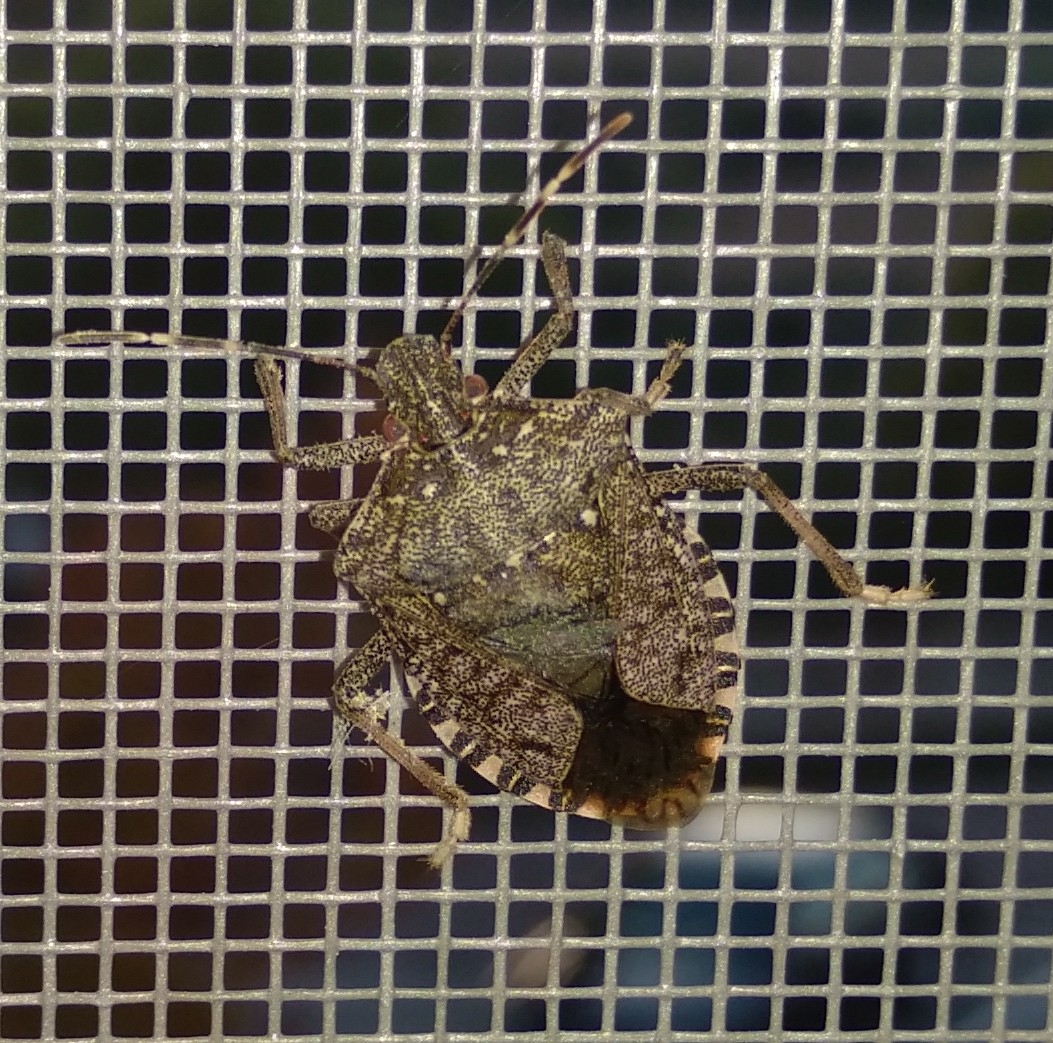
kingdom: Animalia
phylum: Arthropoda
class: Insecta
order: Hemiptera
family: Pentatomidae
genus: Halyomorpha
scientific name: Halyomorpha halys
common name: Brown marmorated stink bug
